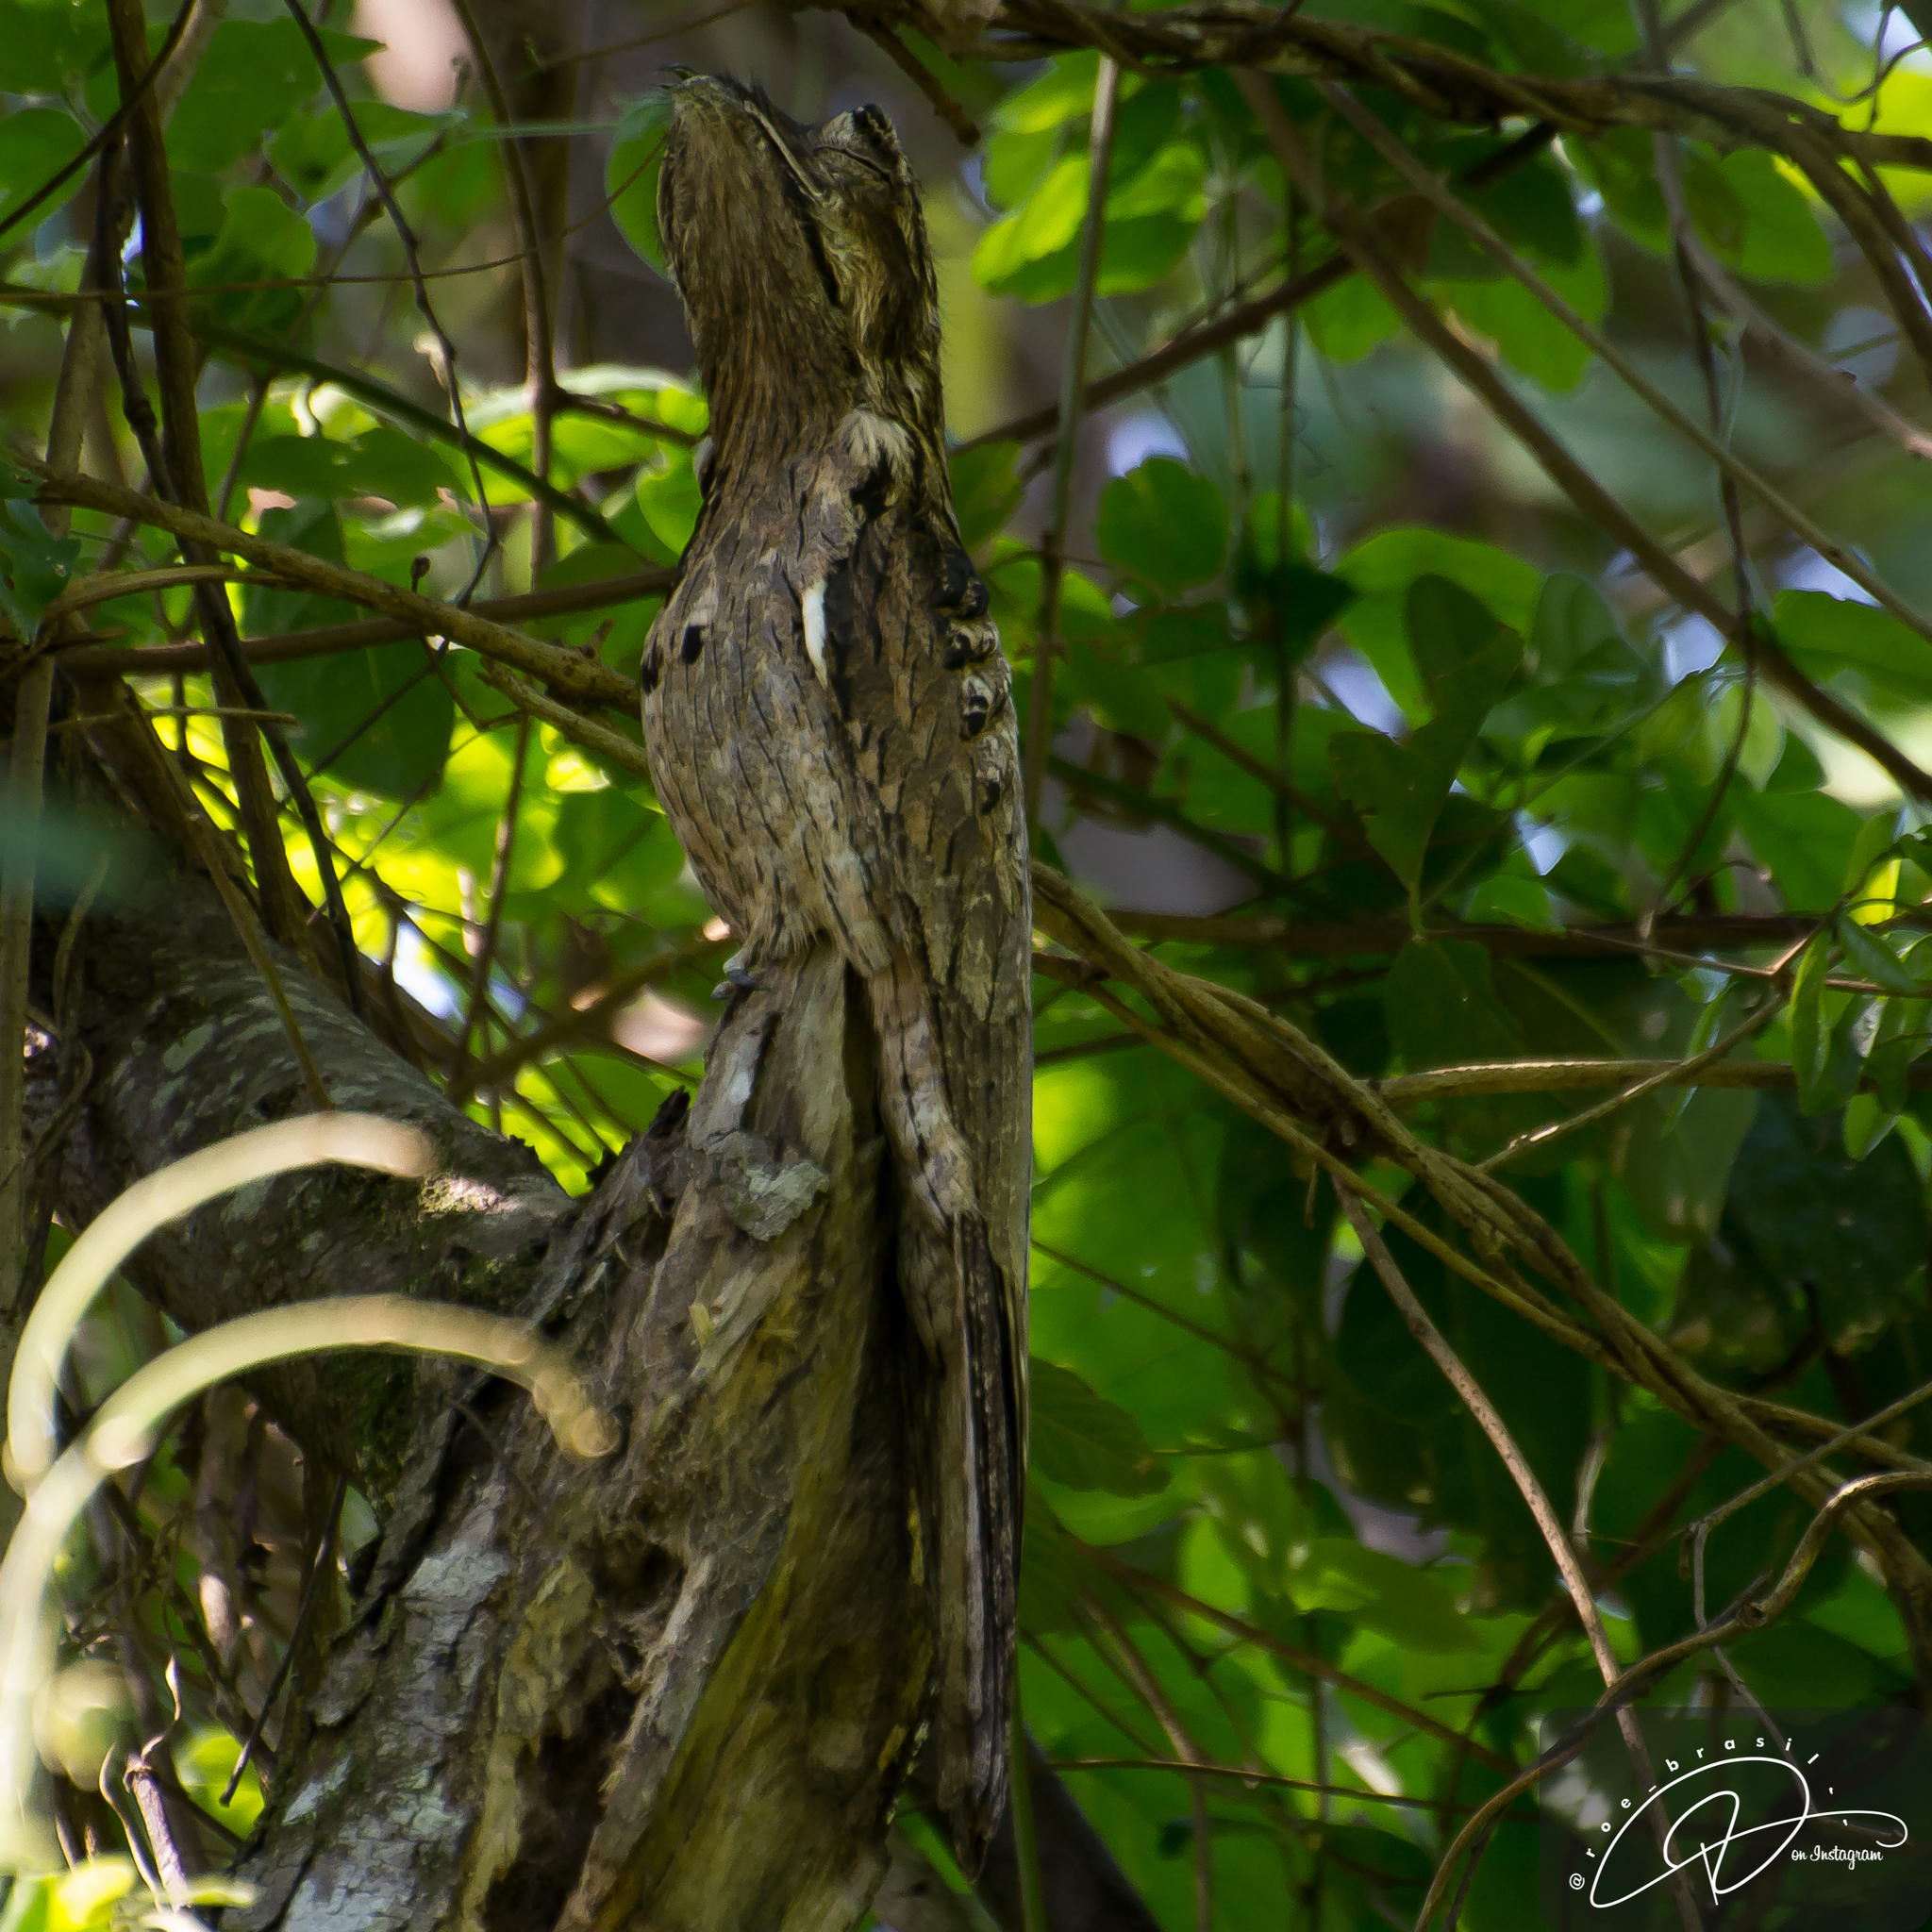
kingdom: Animalia
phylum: Chordata
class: Aves
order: Nyctibiiformes
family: Nyctibiidae
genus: Nyctibius
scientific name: Nyctibius griseus
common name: Common potoo
